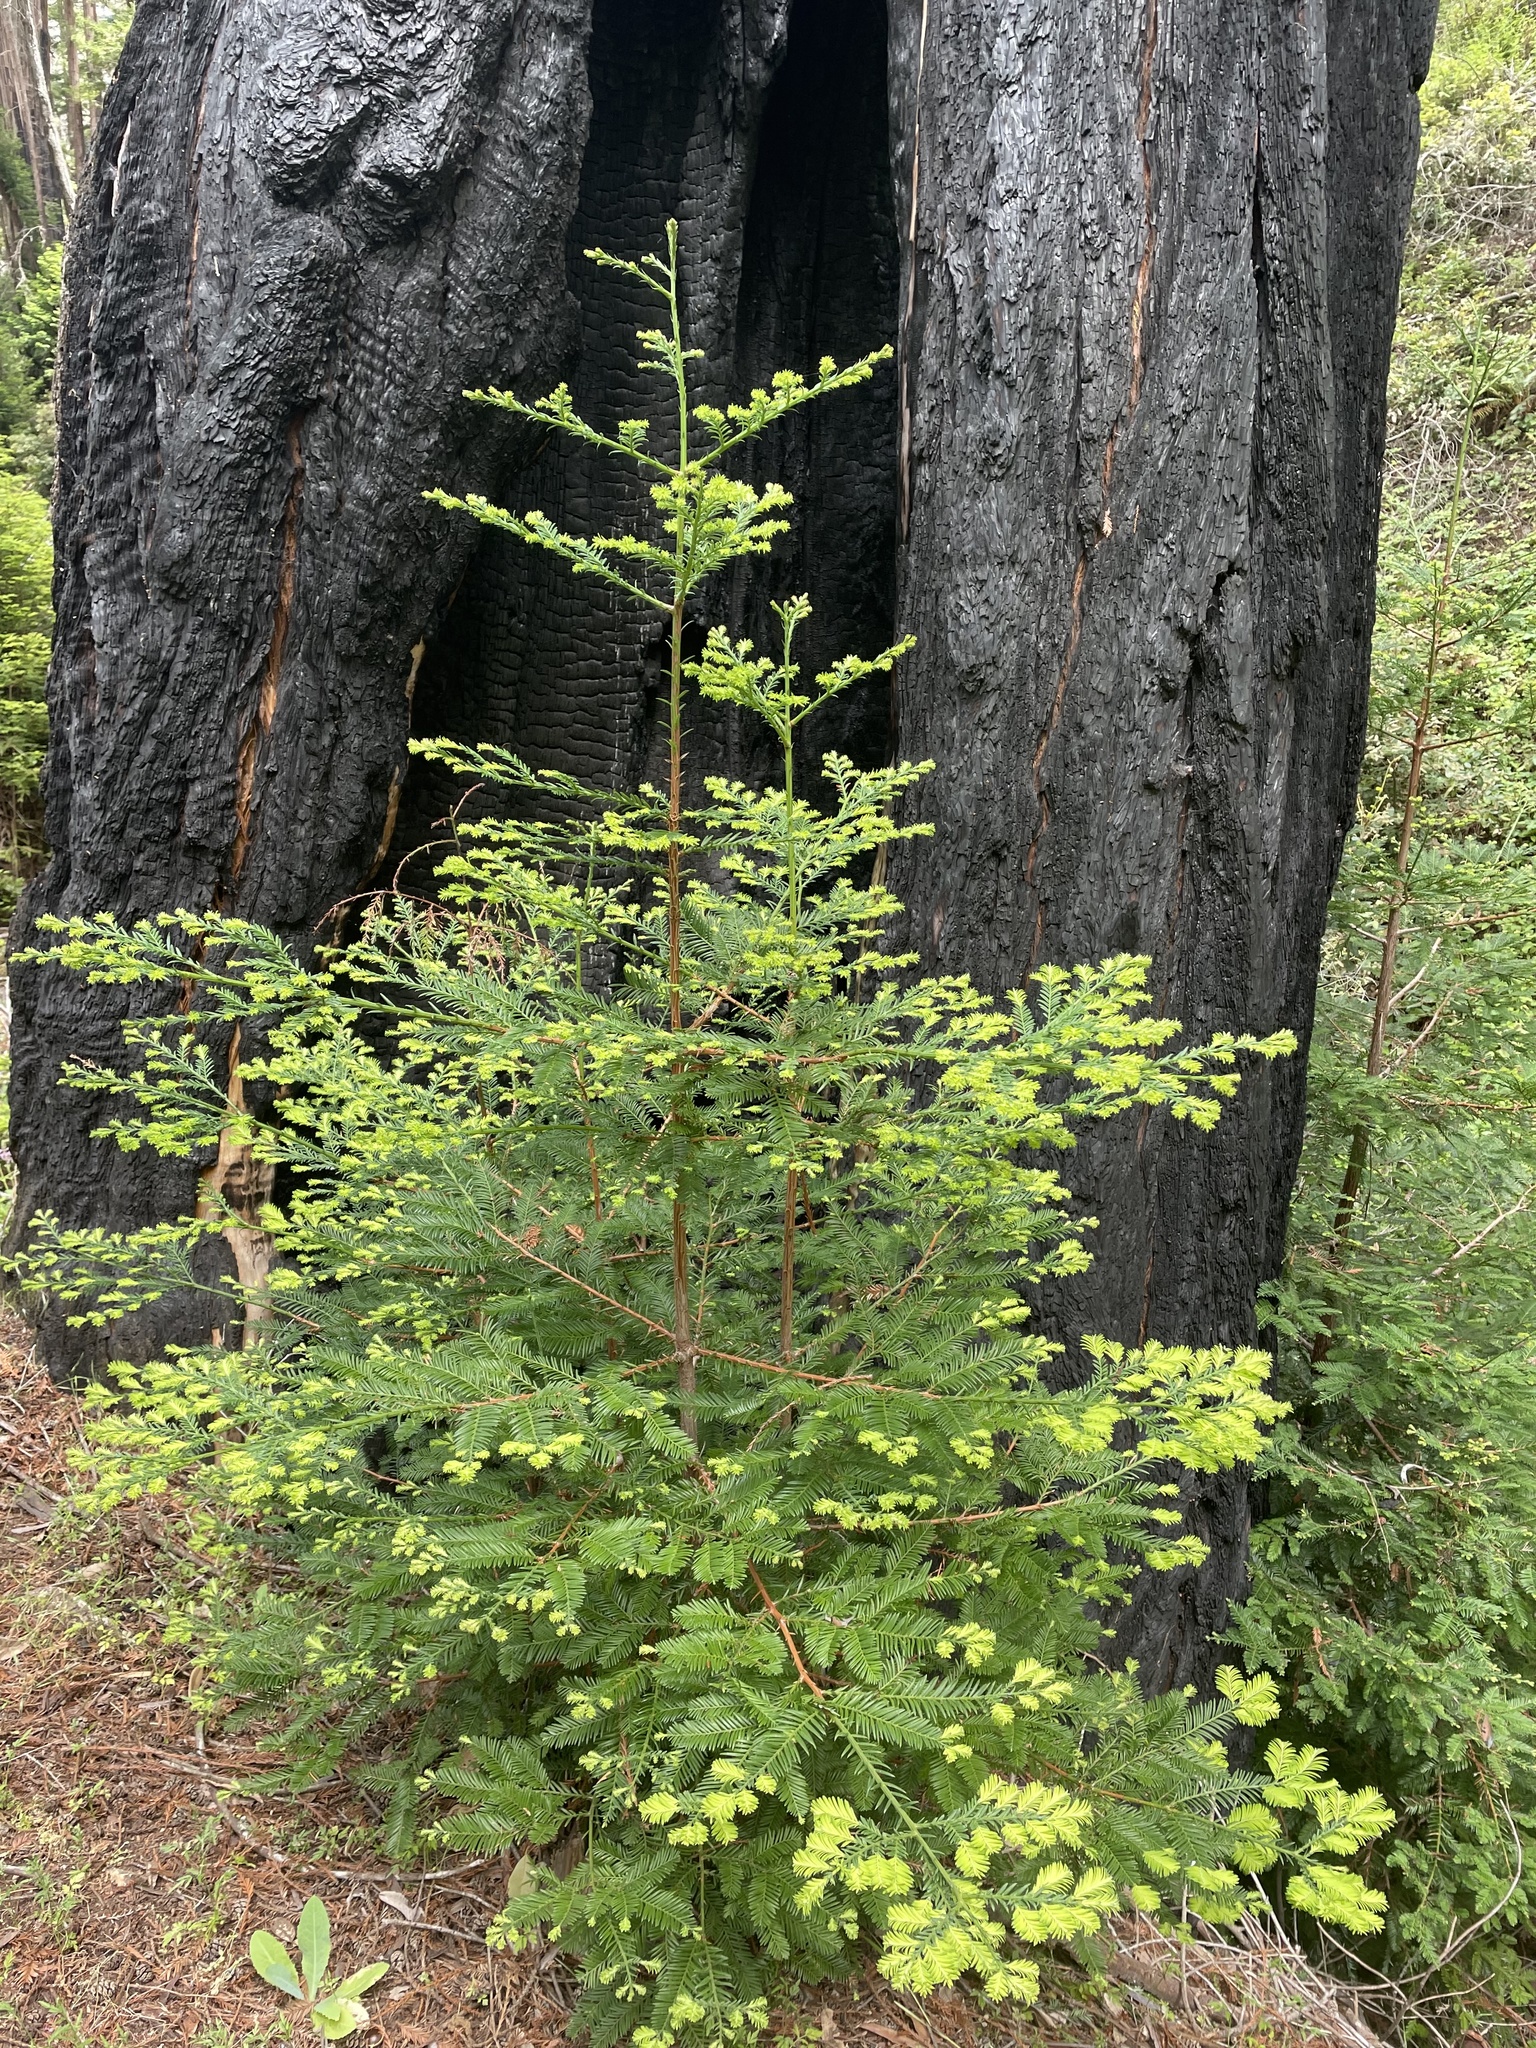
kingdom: Plantae
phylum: Tracheophyta
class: Pinopsida
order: Pinales
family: Cupressaceae
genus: Sequoia
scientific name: Sequoia sempervirens
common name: Coast redwood
